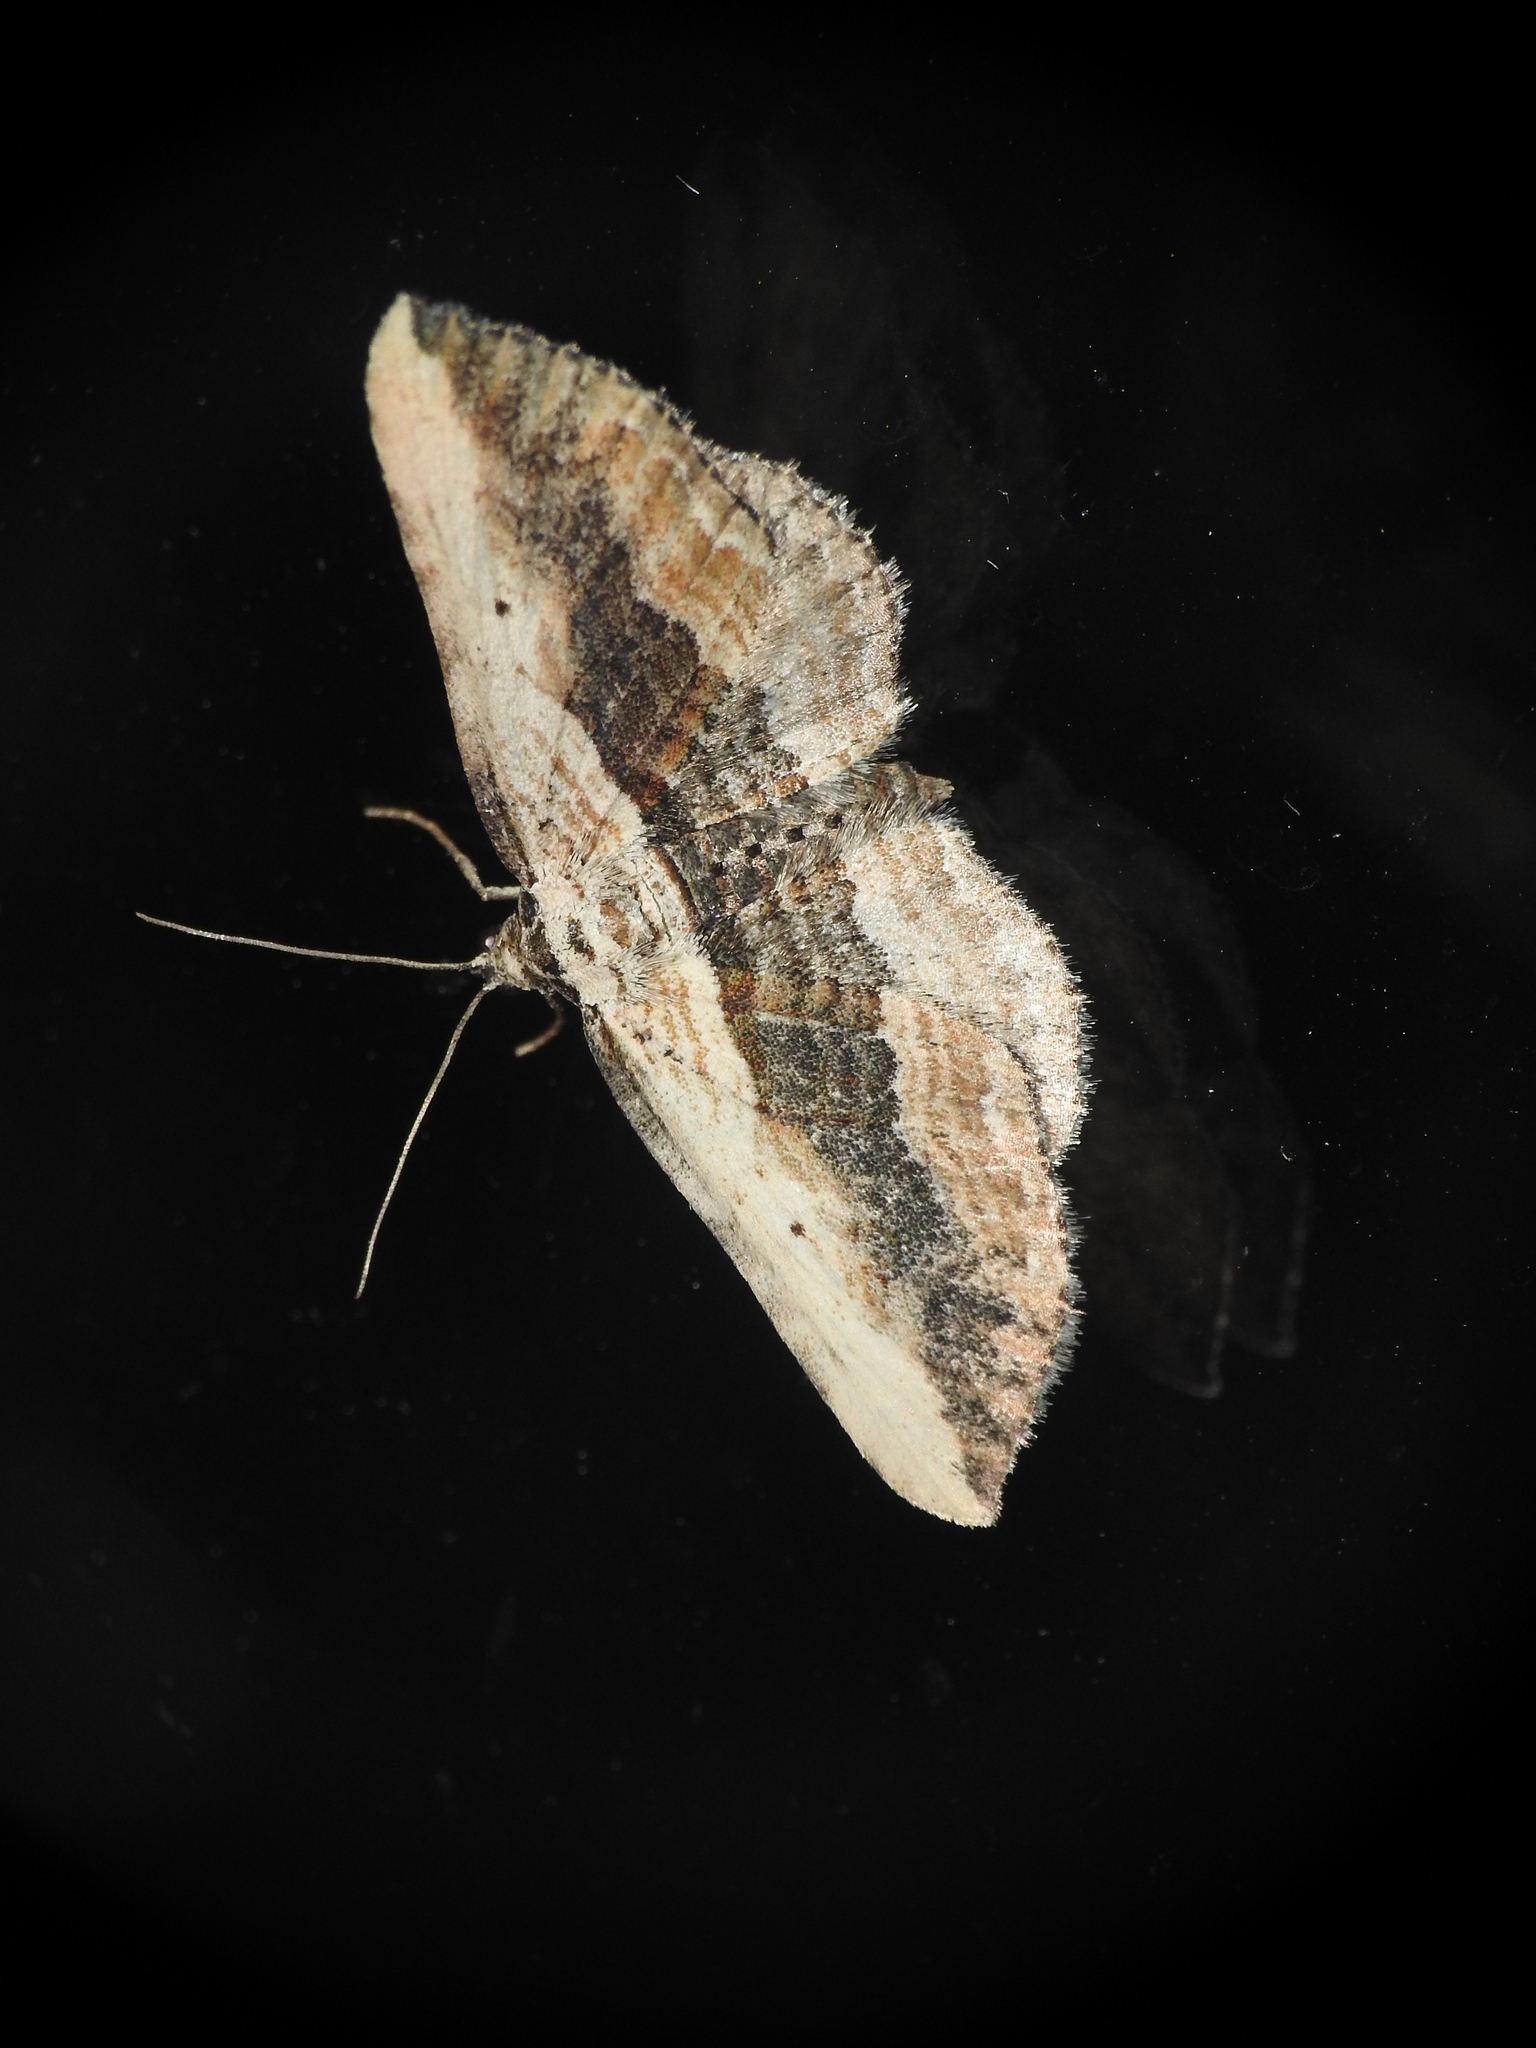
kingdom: Animalia
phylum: Arthropoda
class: Insecta
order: Lepidoptera
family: Geometridae
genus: Horisme
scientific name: Horisme vitalbata
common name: Small waved umber
